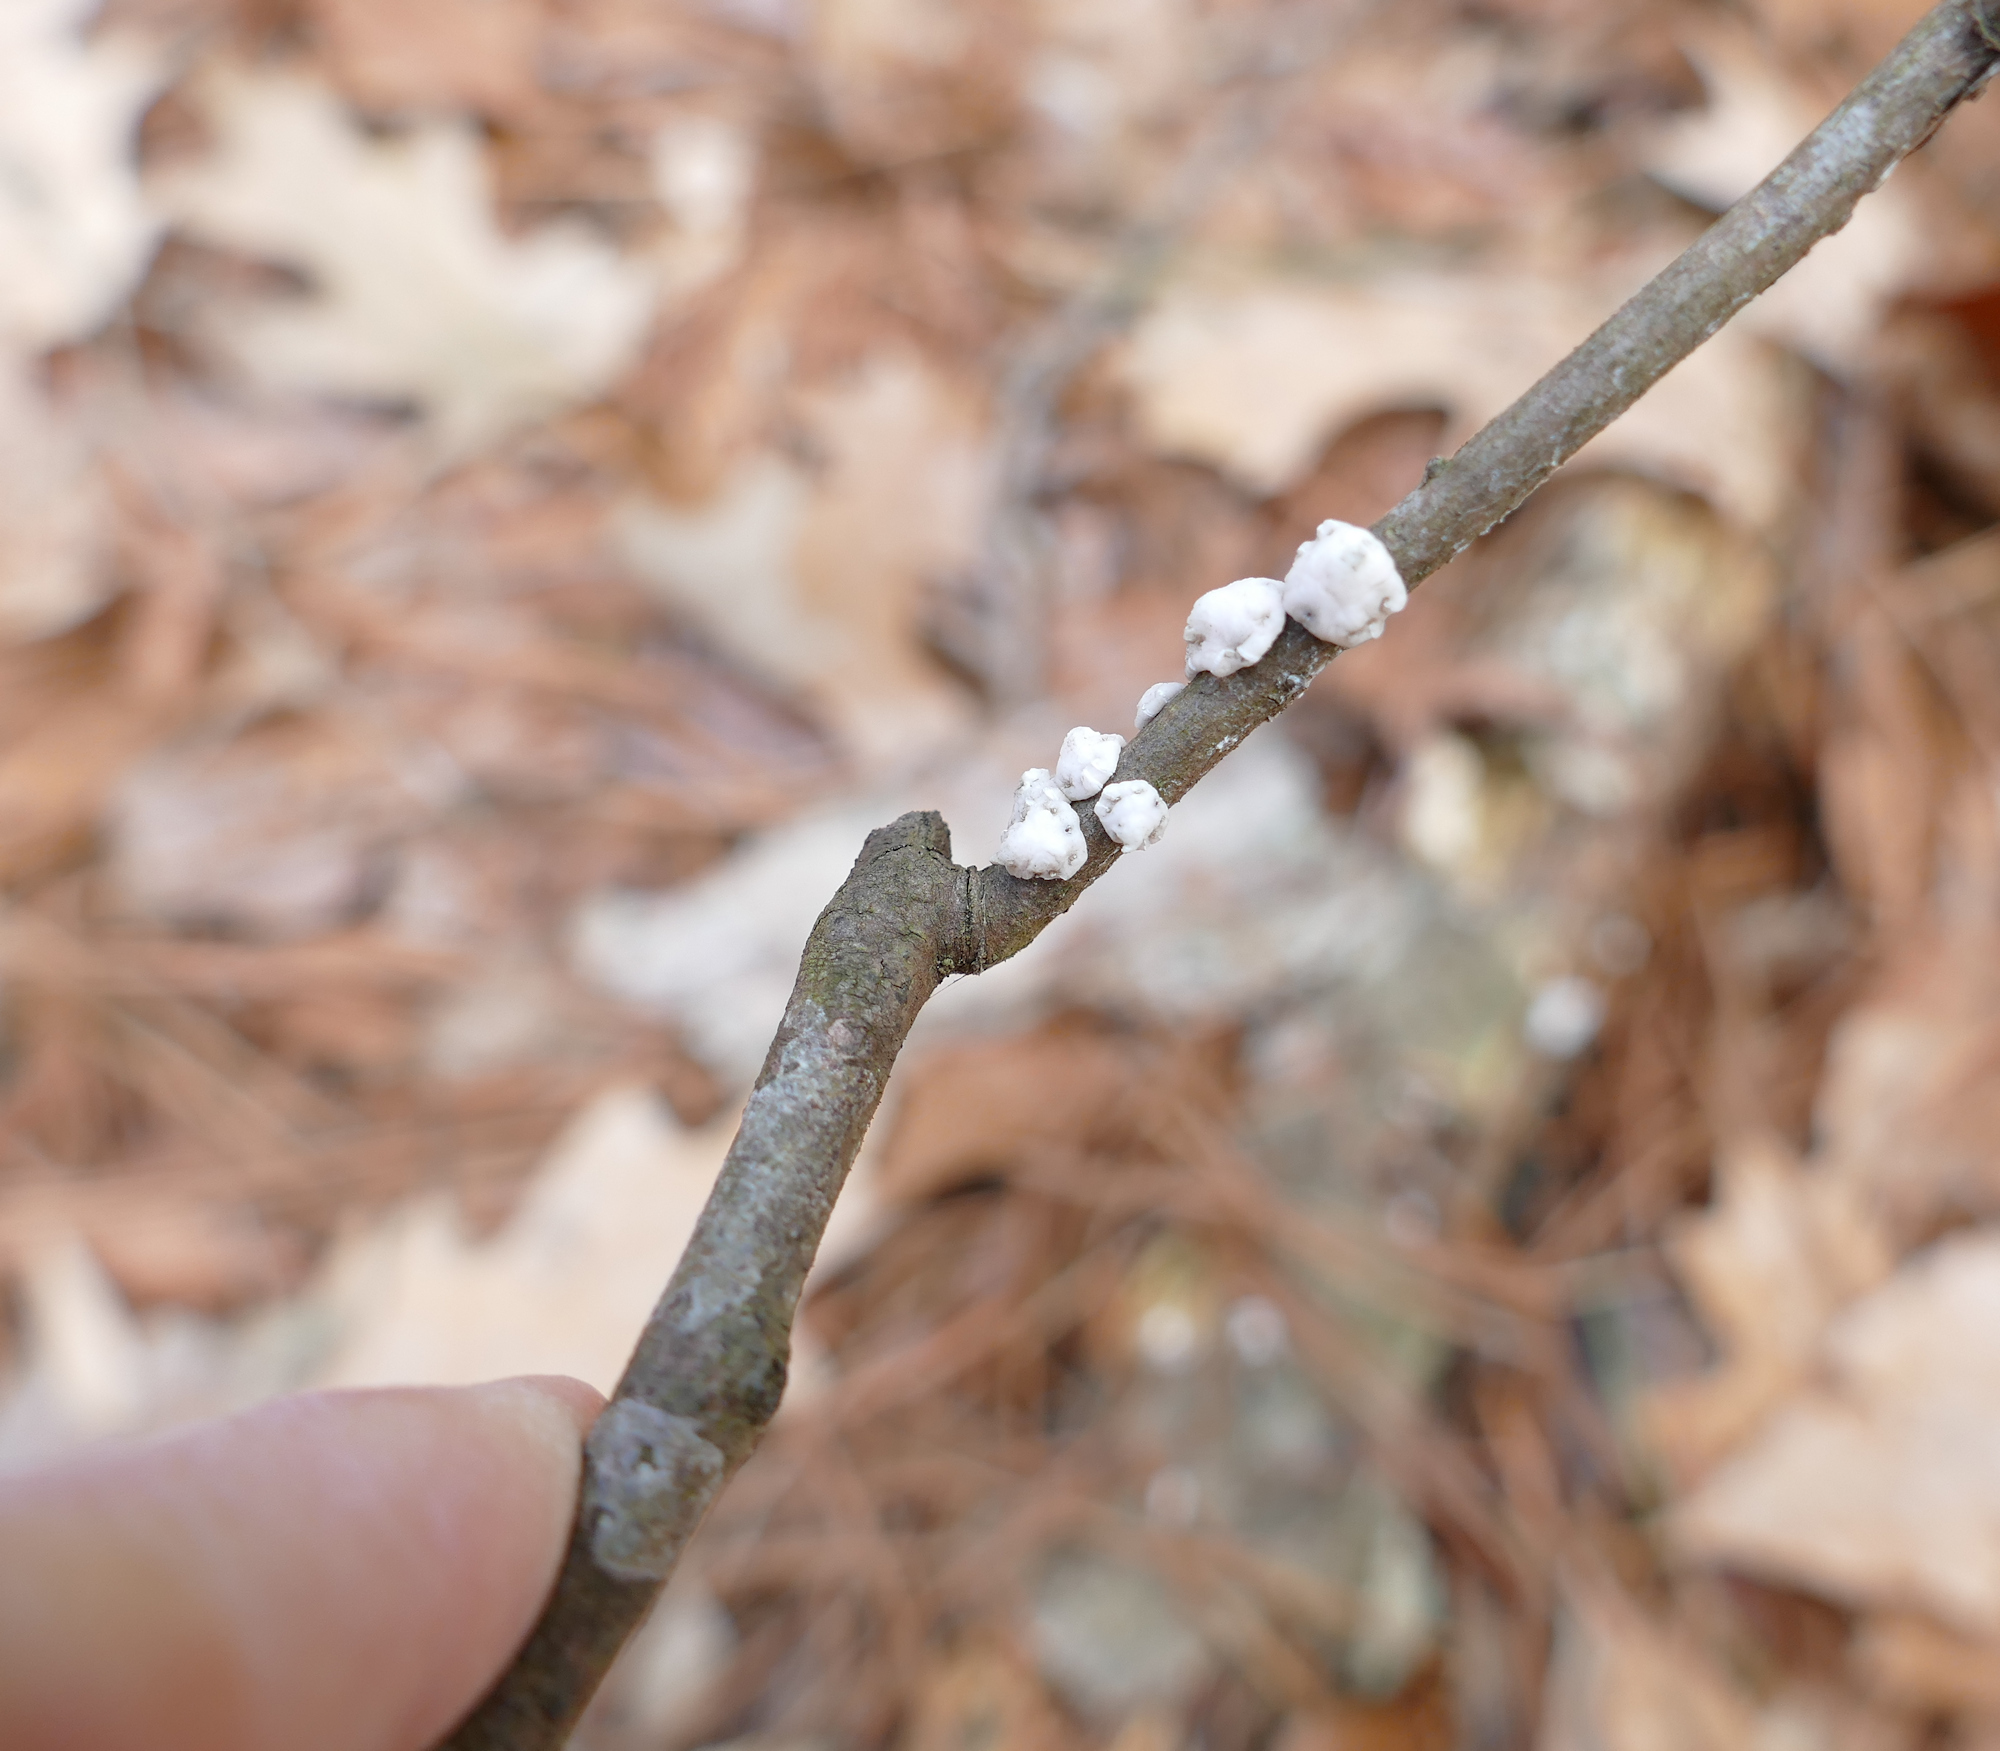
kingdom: Animalia
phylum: Arthropoda
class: Insecta
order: Hemiptera
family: Coccidae
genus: Ceroplastes
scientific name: Ceroplastes ceriferus
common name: Indian wax scale
